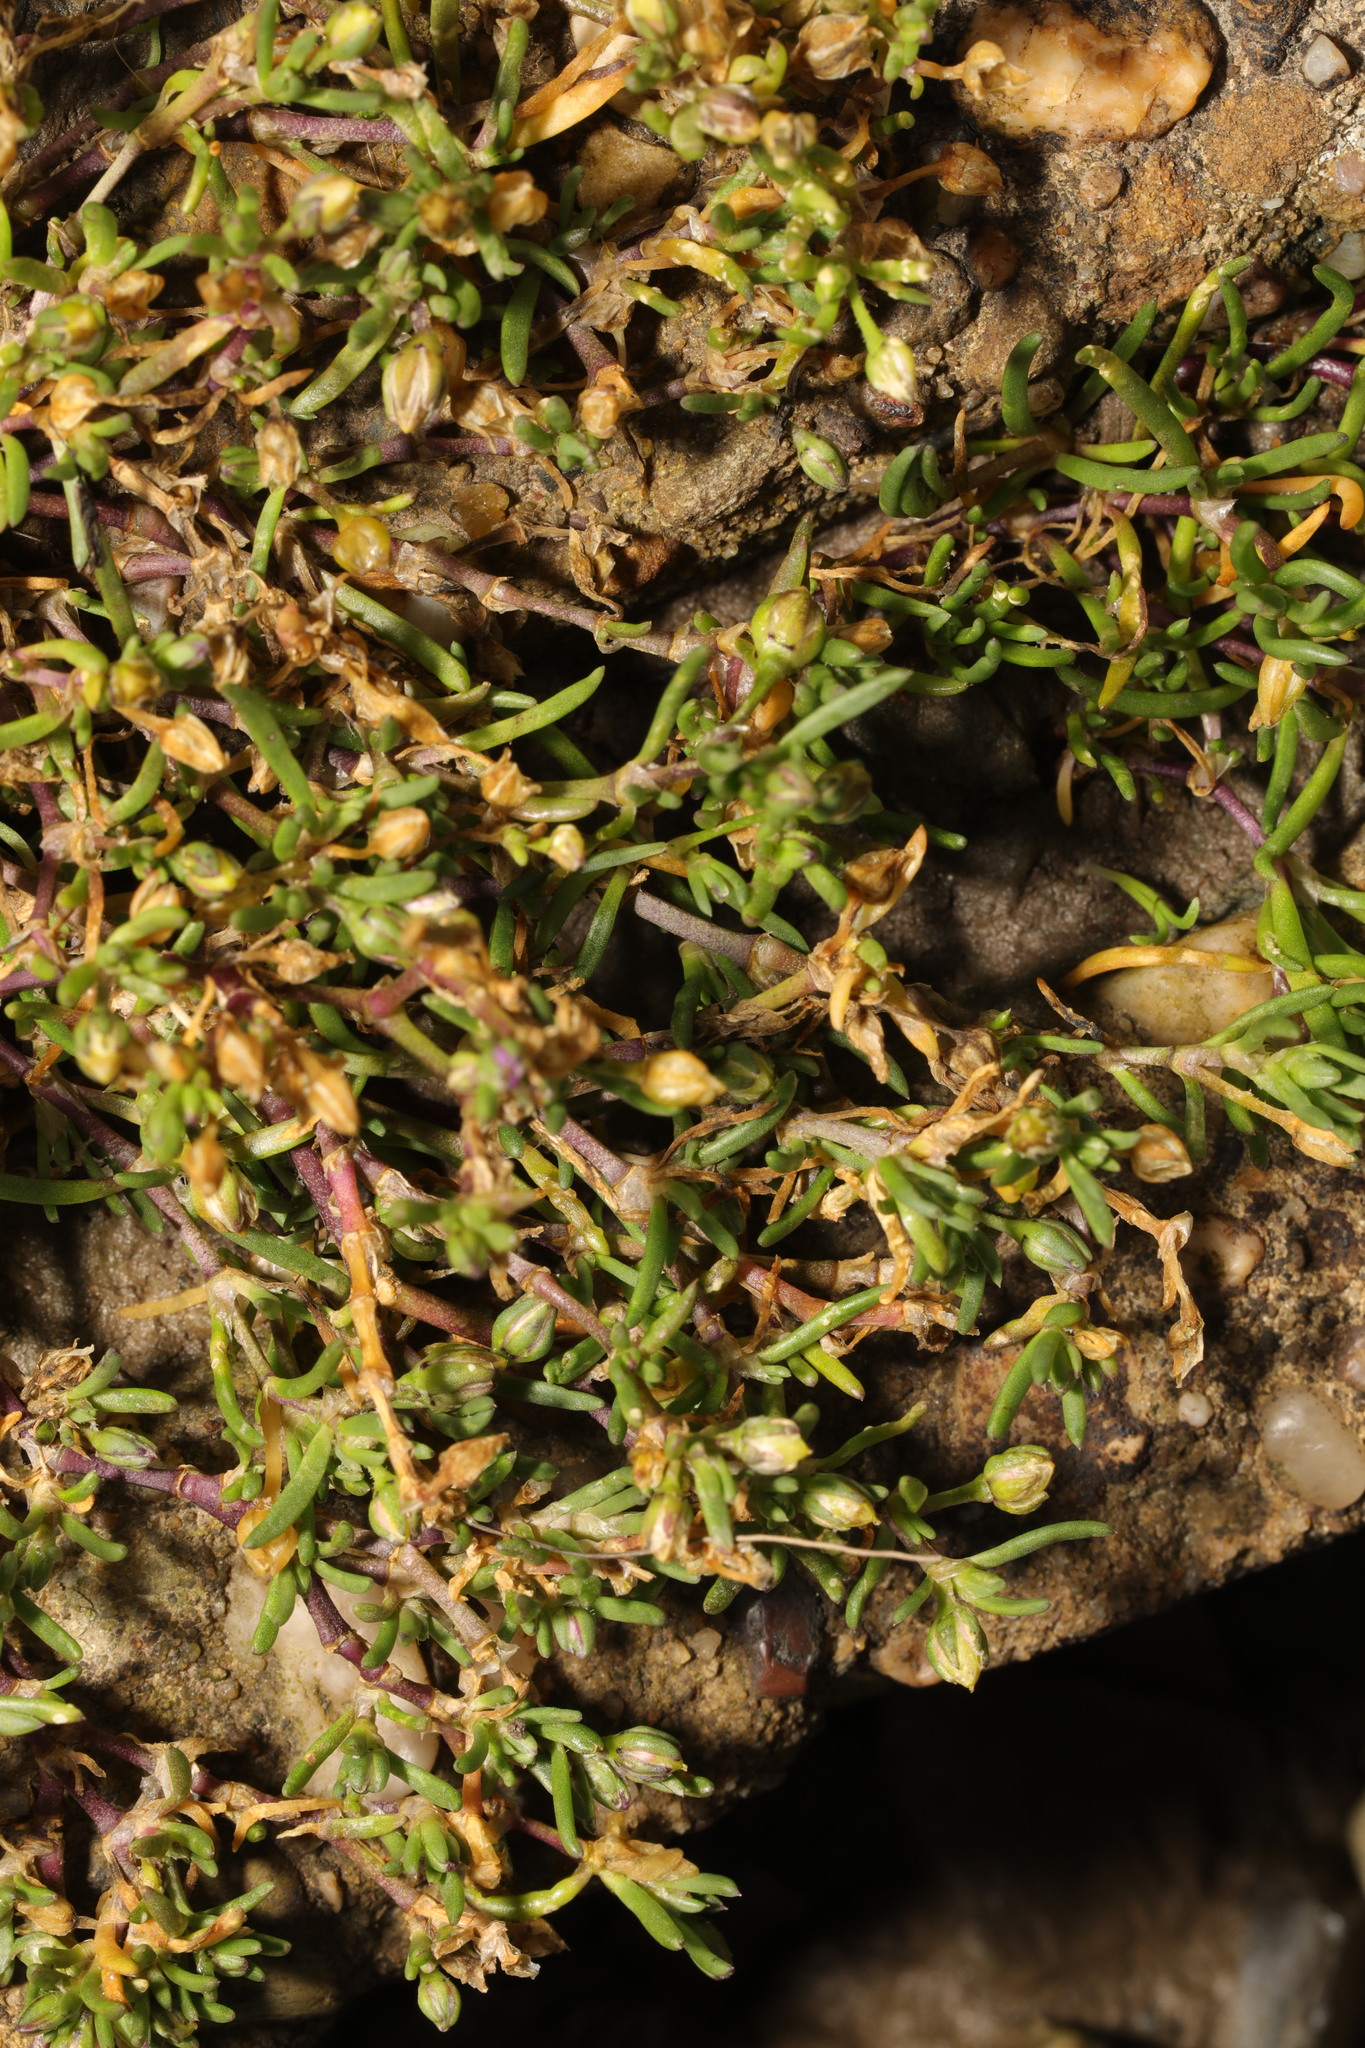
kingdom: Plantae
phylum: Tracheophyta
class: Magnoliopsida
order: Caryophyllales
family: Caryophyllaceae
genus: Spergularia
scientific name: Spergularia marina
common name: Lesser sea-spurrey
